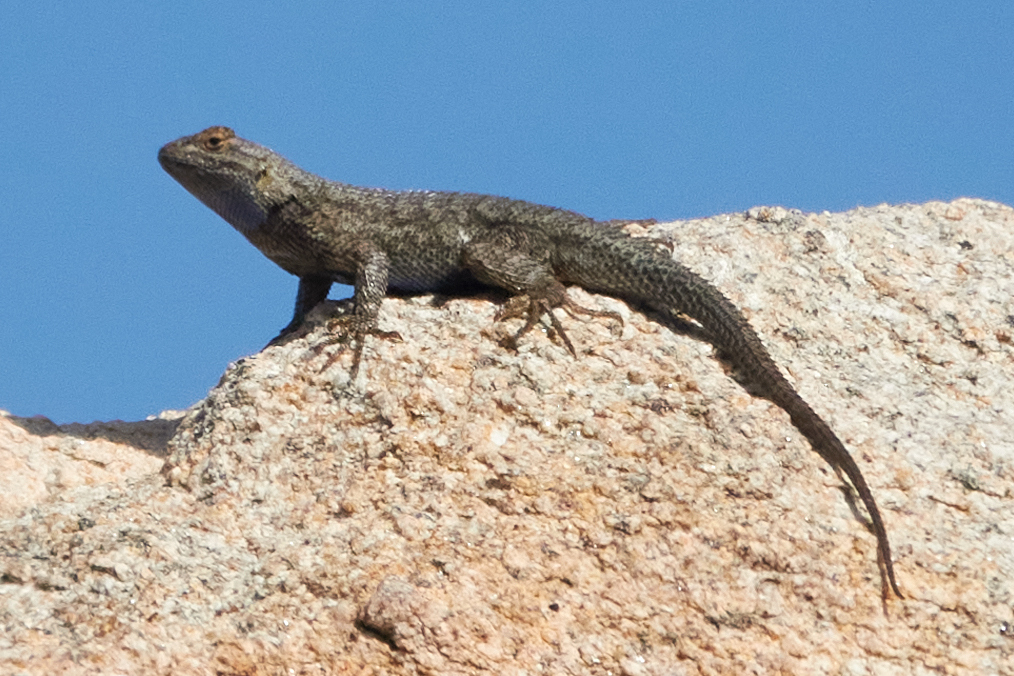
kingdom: Animalia
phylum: Chordata
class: Squamata
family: Phrynosomatidae
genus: Sceloporus
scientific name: Sceloporus occidentalis
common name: Western fence lizard
